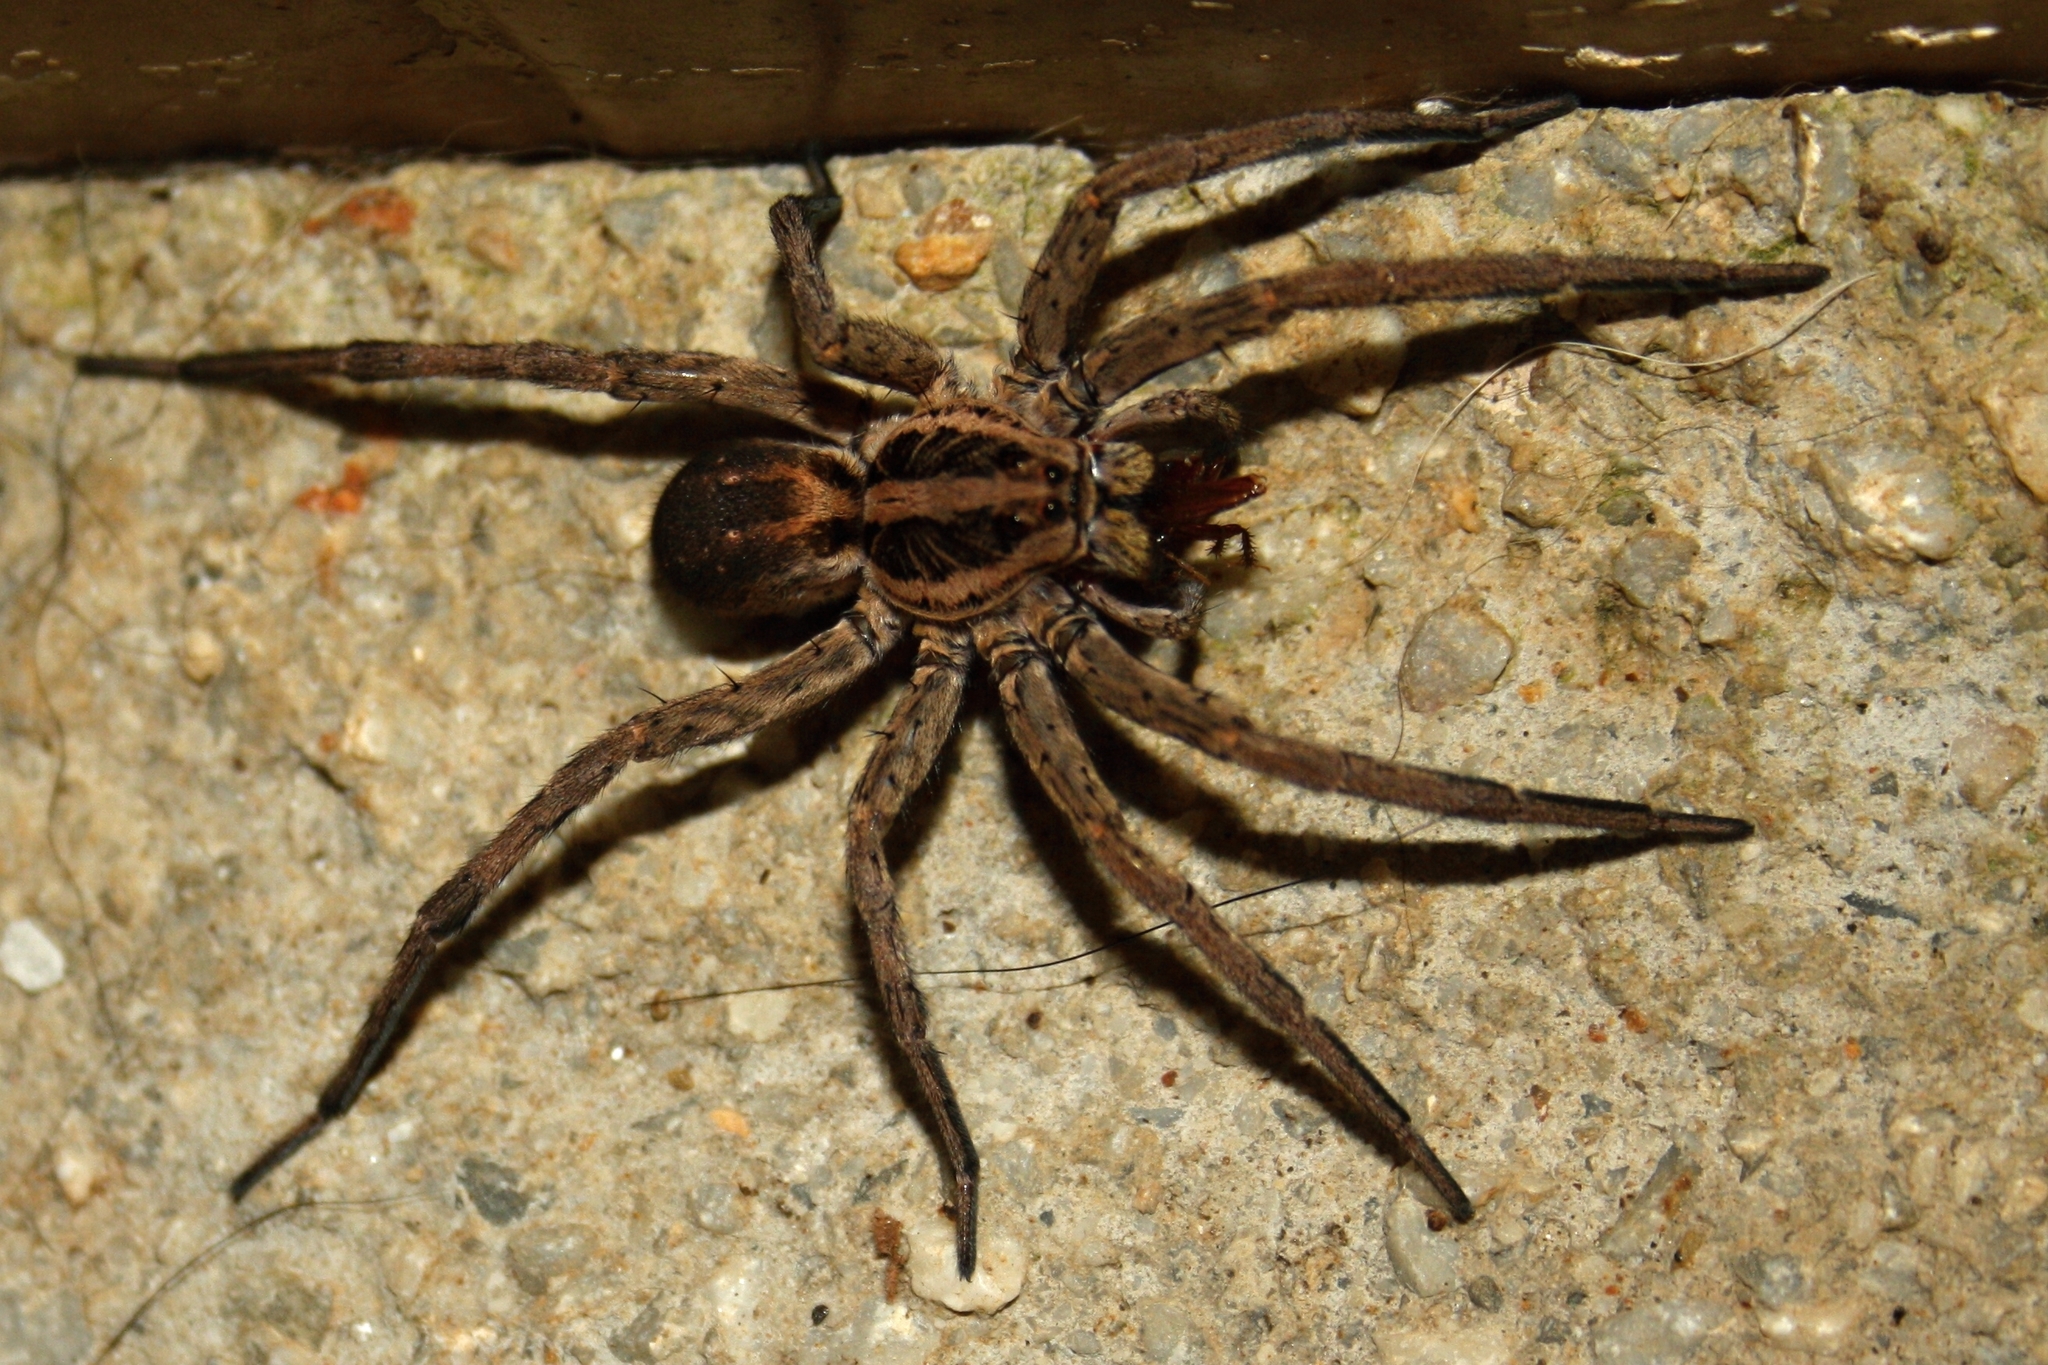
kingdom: Animalia
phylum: Arthropoda
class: Arachnida
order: Araneae
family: Lycosidae
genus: Hogna
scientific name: Hogna radiata
